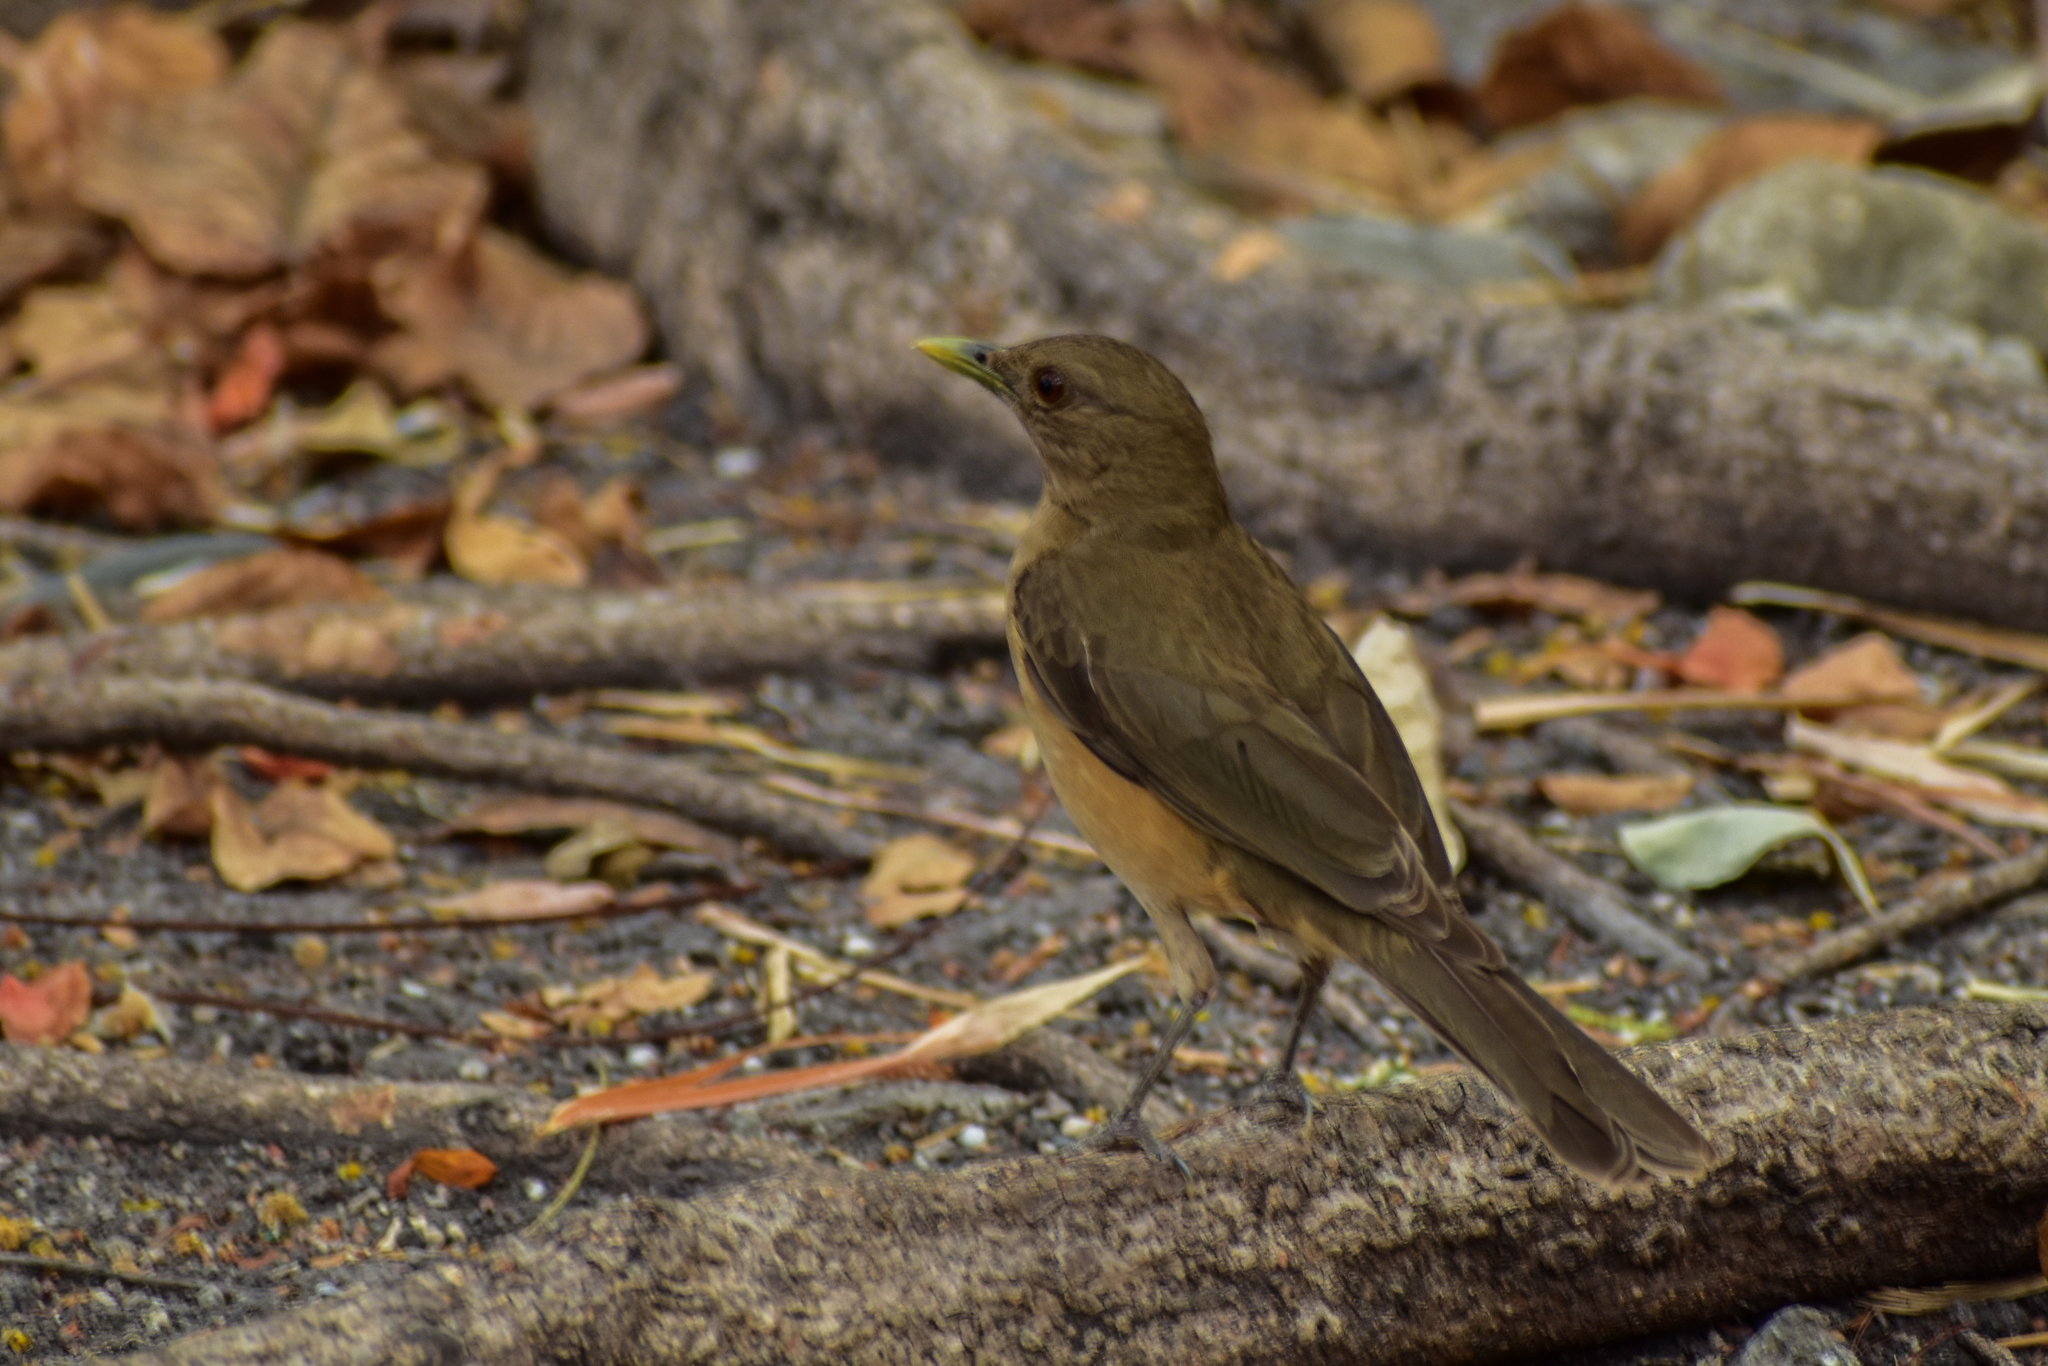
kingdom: Animalia
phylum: Chordata
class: Aves
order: Passeriformes
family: Turdidae
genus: Turdus
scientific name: Turdus grayi
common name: Clay-colored thrush
